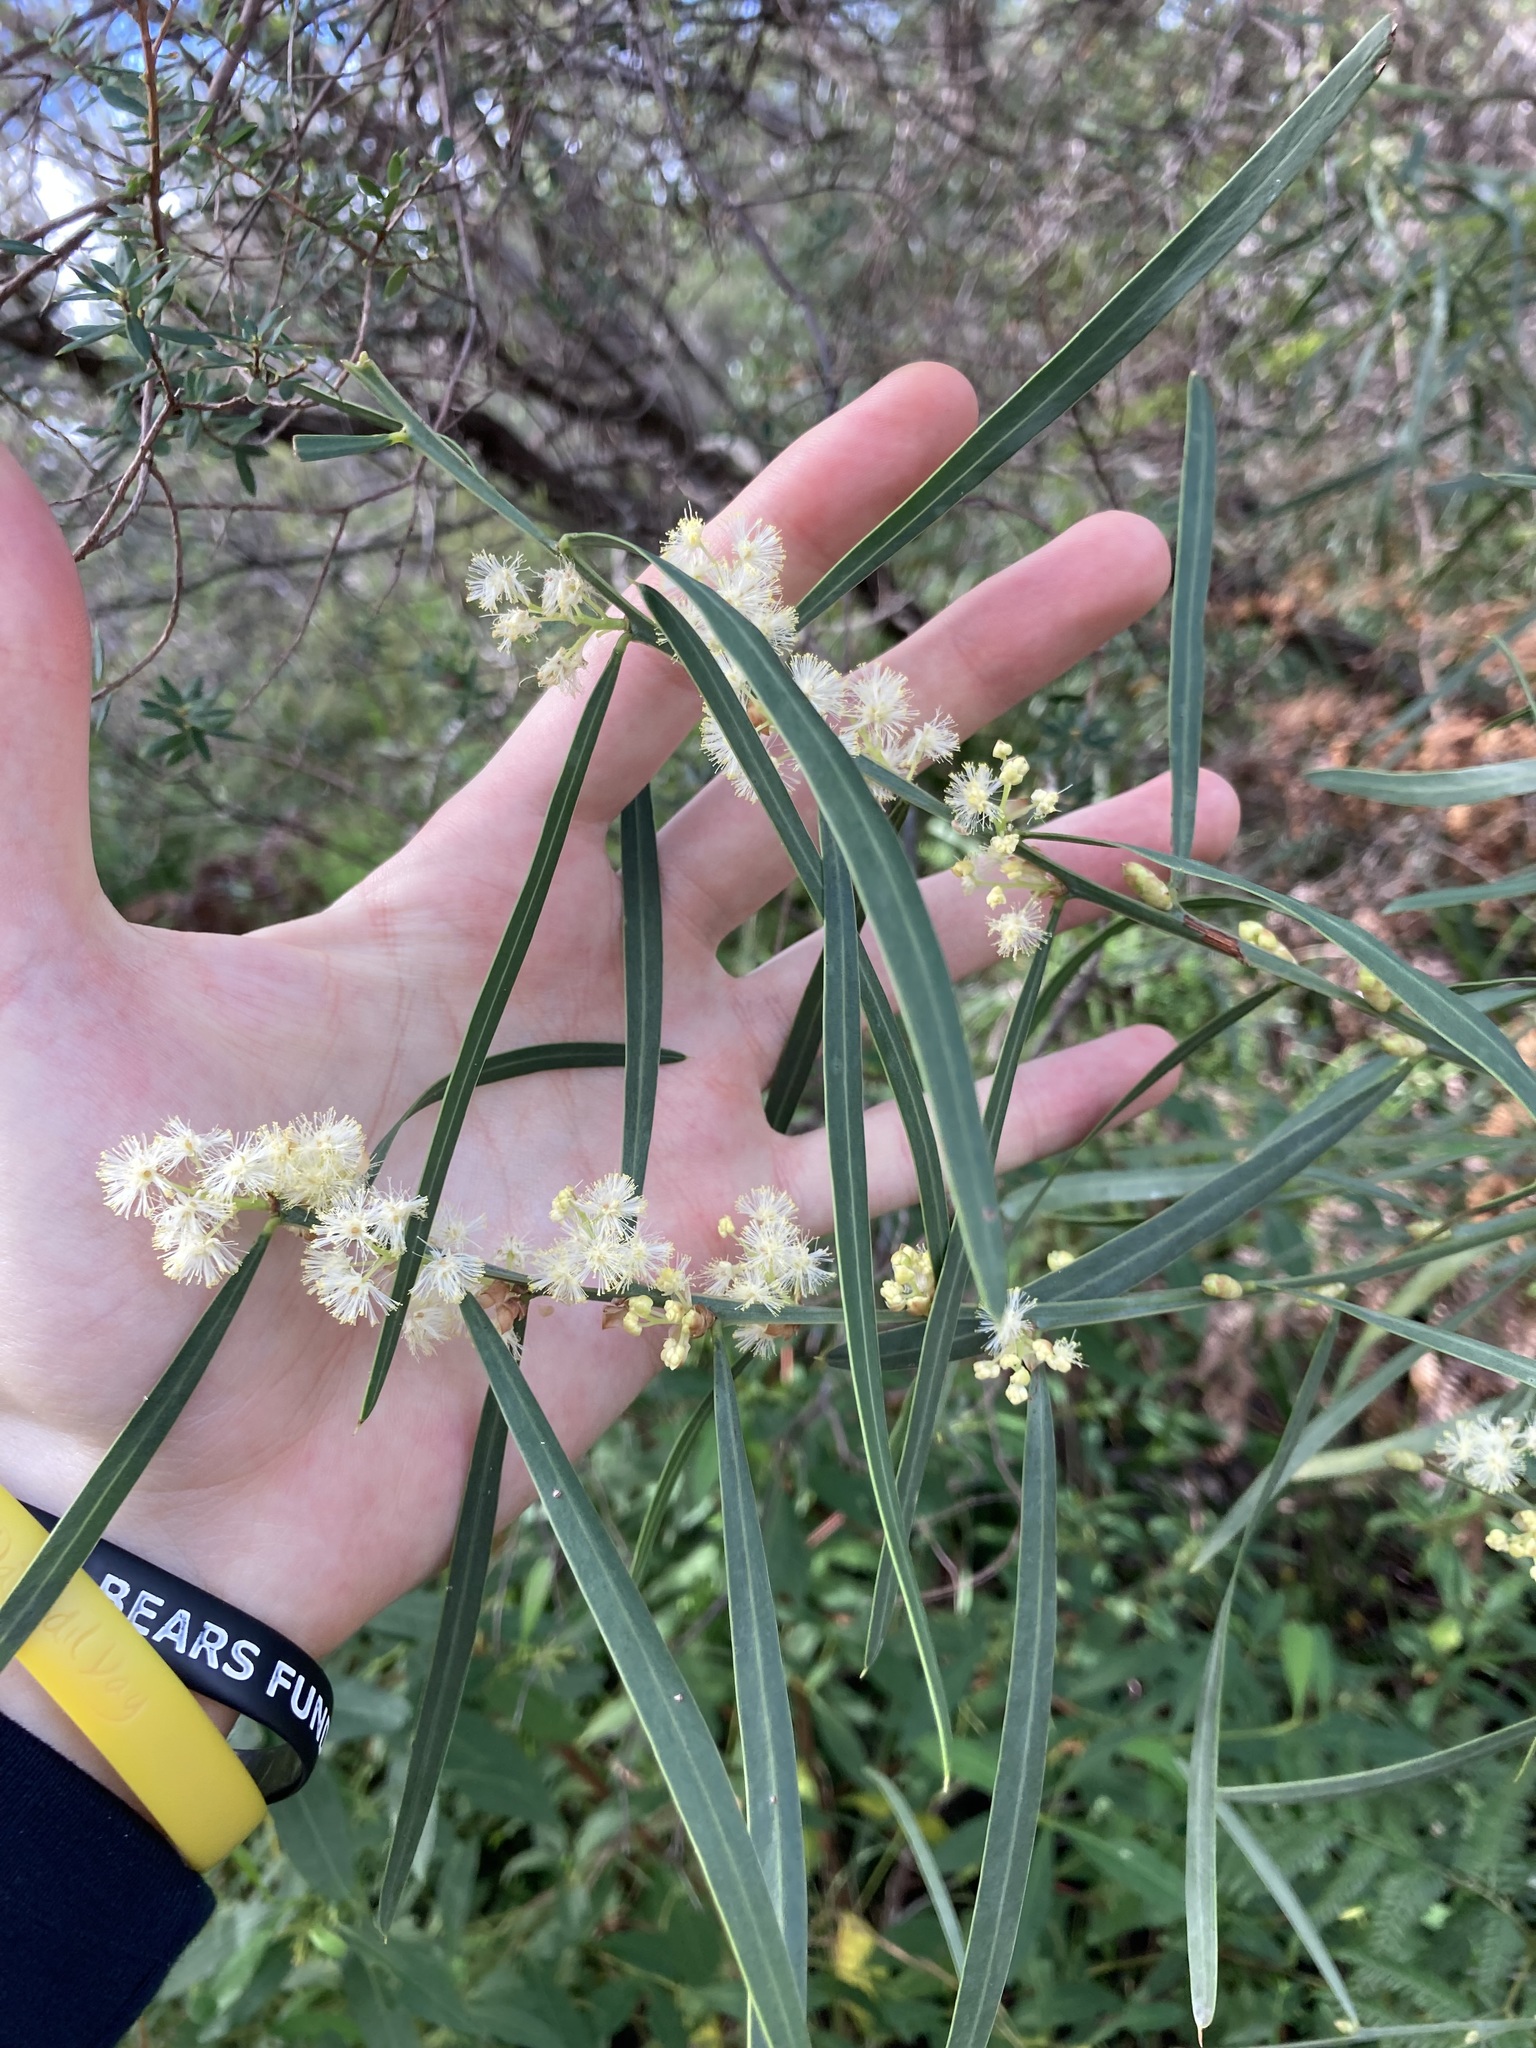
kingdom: Plantae
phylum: Tracheophyta
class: Magnoliopsida
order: Fabales
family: Fabaceae
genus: Acacia
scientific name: Acacia suaveolens
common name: Sweet acacia
